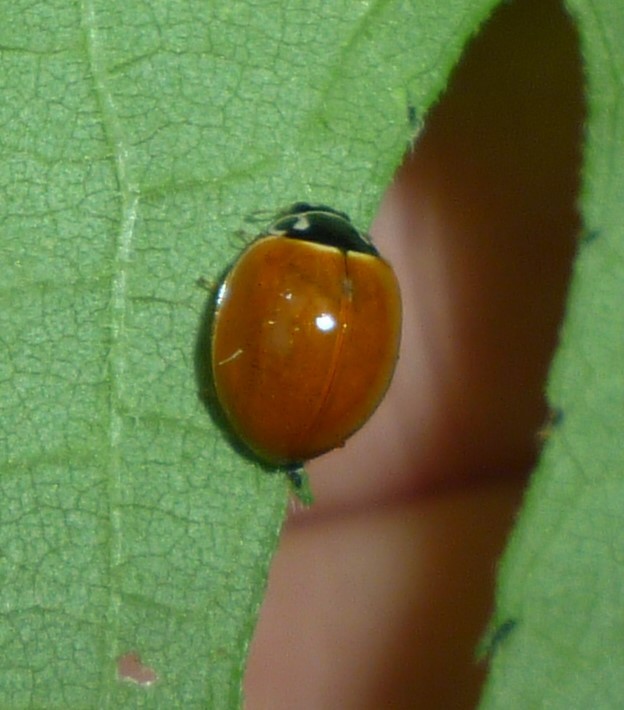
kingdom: Animalia
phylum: Arthropoda
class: Insecta
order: Coleoptera
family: Coccinellidae
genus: Cycloneda
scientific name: Cycloneda munda
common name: Polished lady beetle
